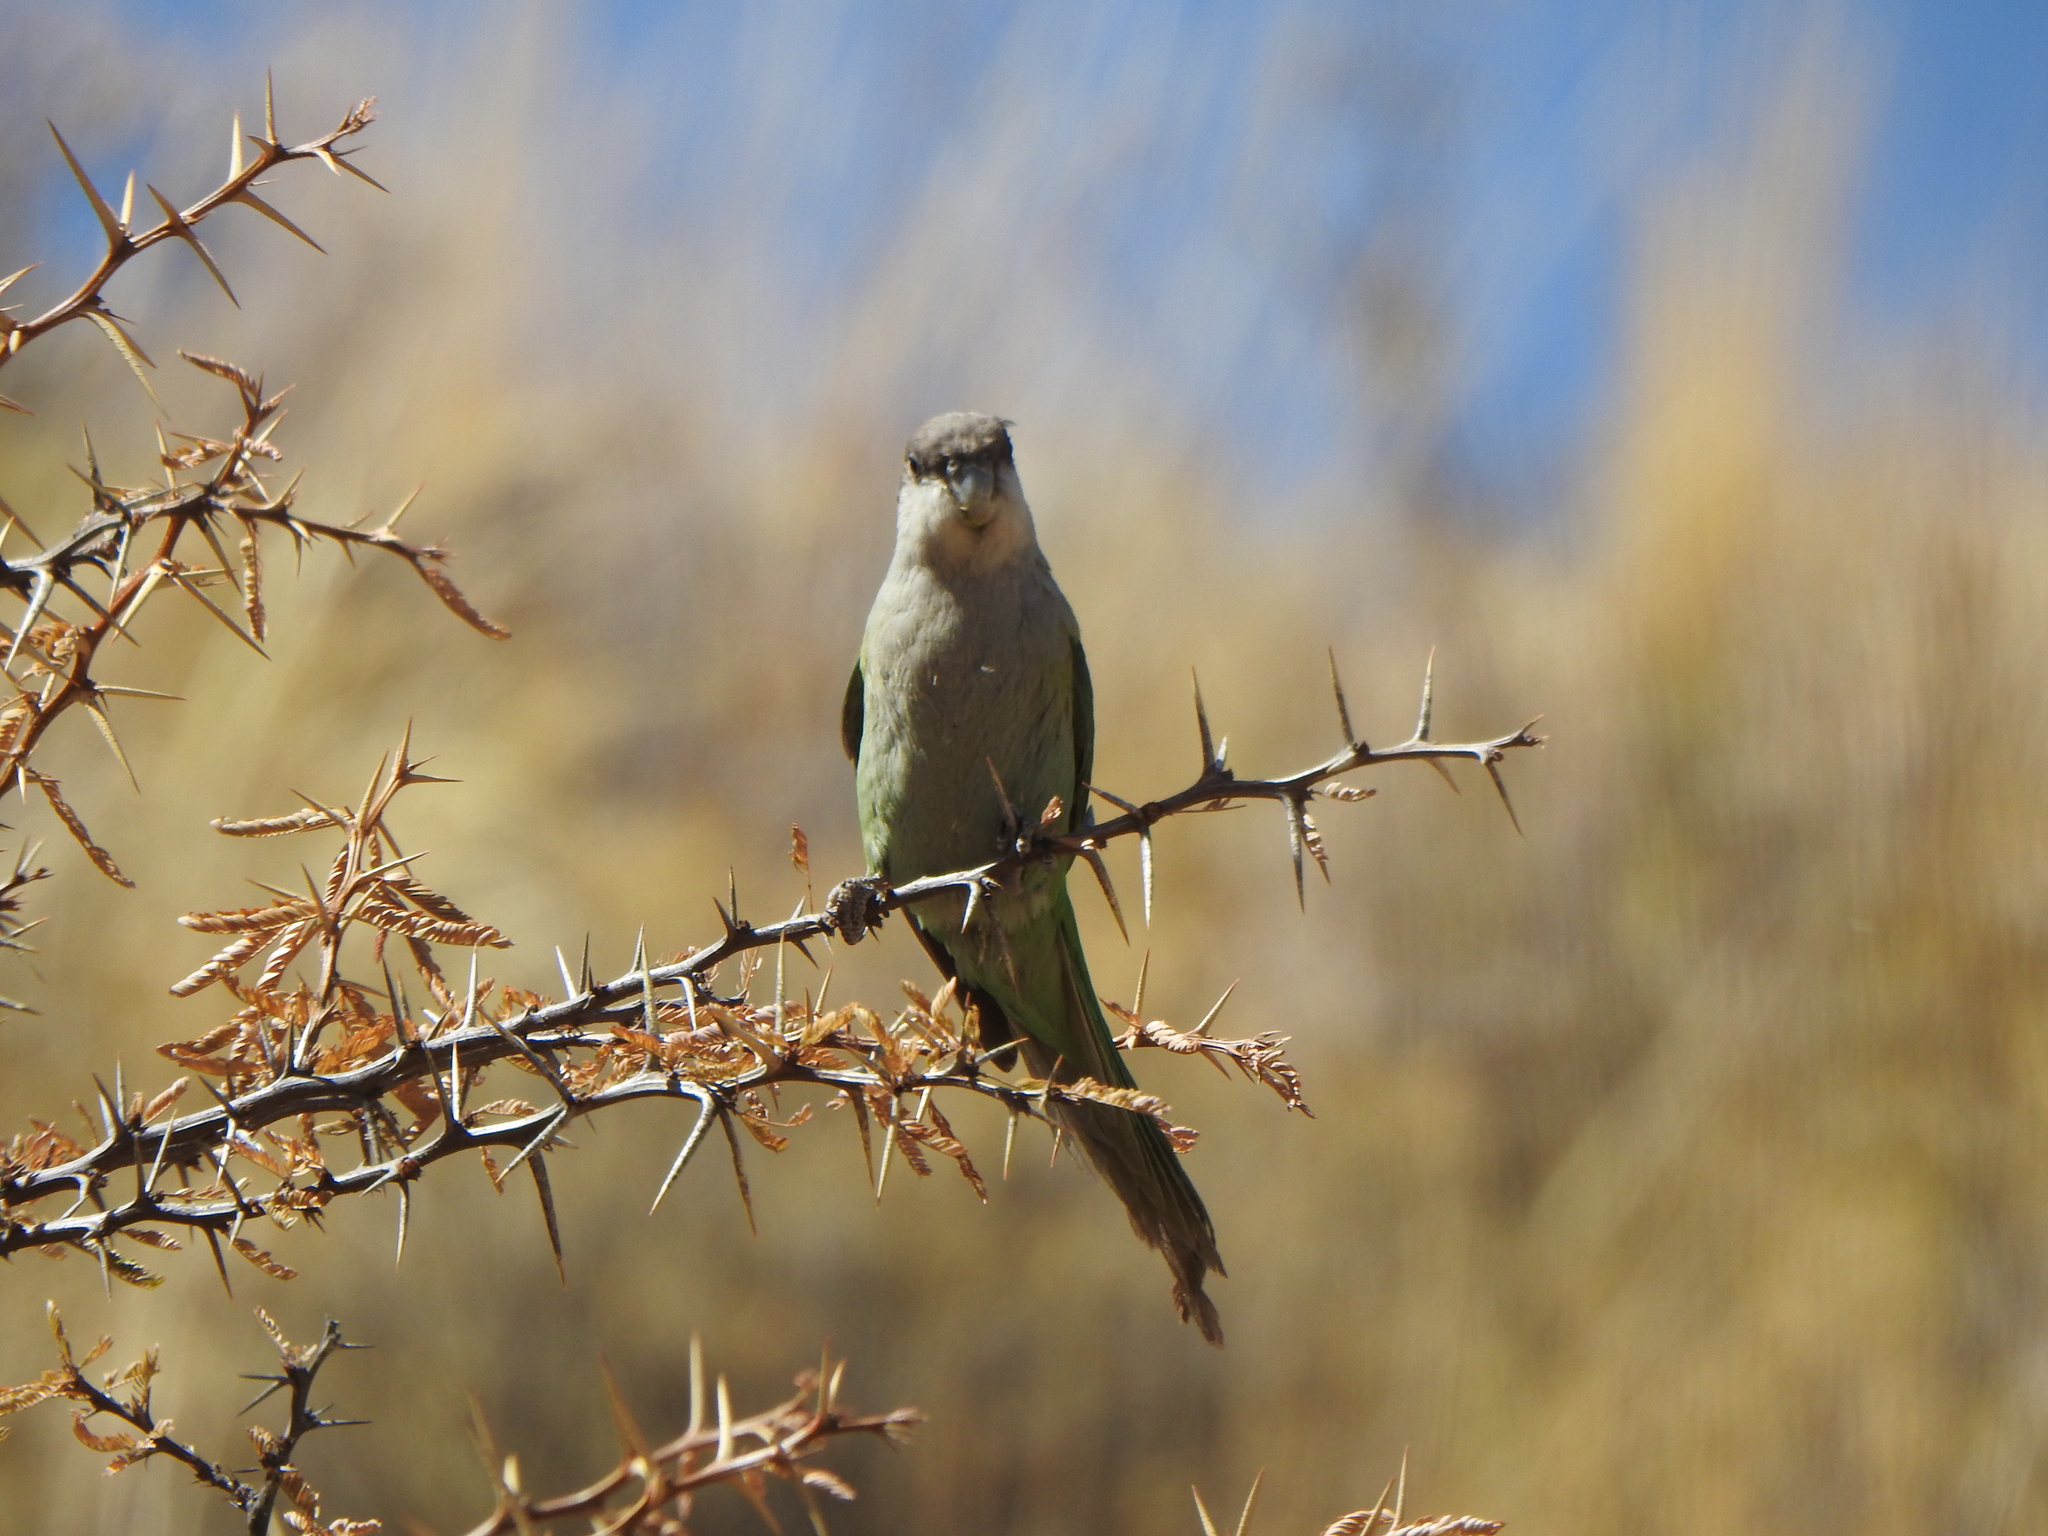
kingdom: Animalia
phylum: Chordata
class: Aves
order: Psittaciformes
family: Psittacidae
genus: Psilopsiagon
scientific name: Psilopsiagon aymara
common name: Grey-hooded parakeet
